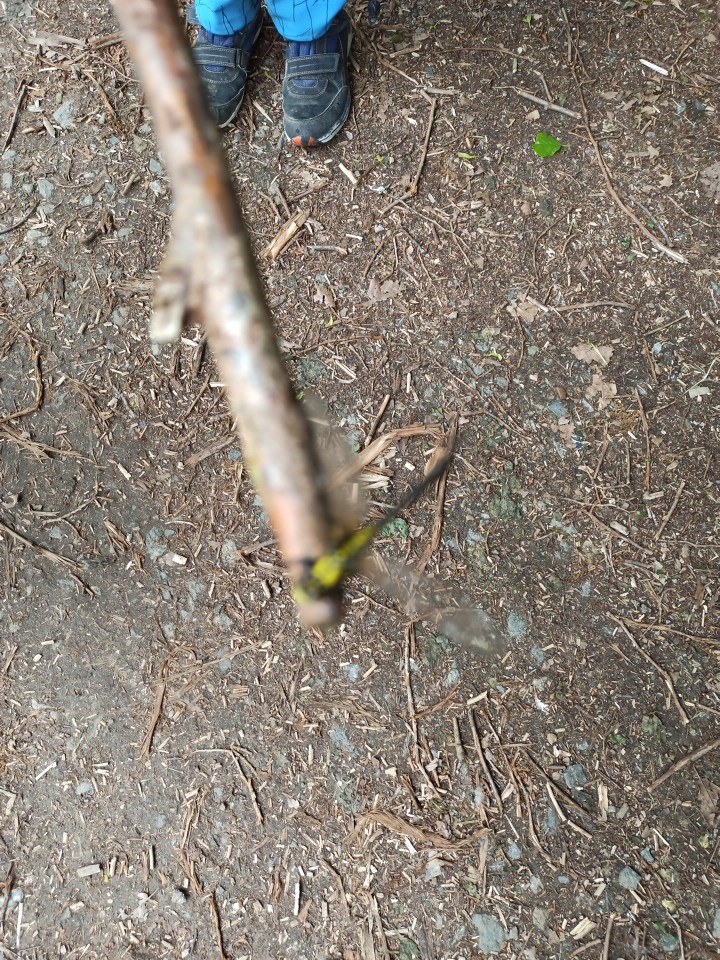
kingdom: Animalia
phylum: Arthropoda
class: Insecta
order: Odonata
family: Gomphidae
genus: Gomphus
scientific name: Gomphus vulgatissimus
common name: Club-tailed dragonfly
